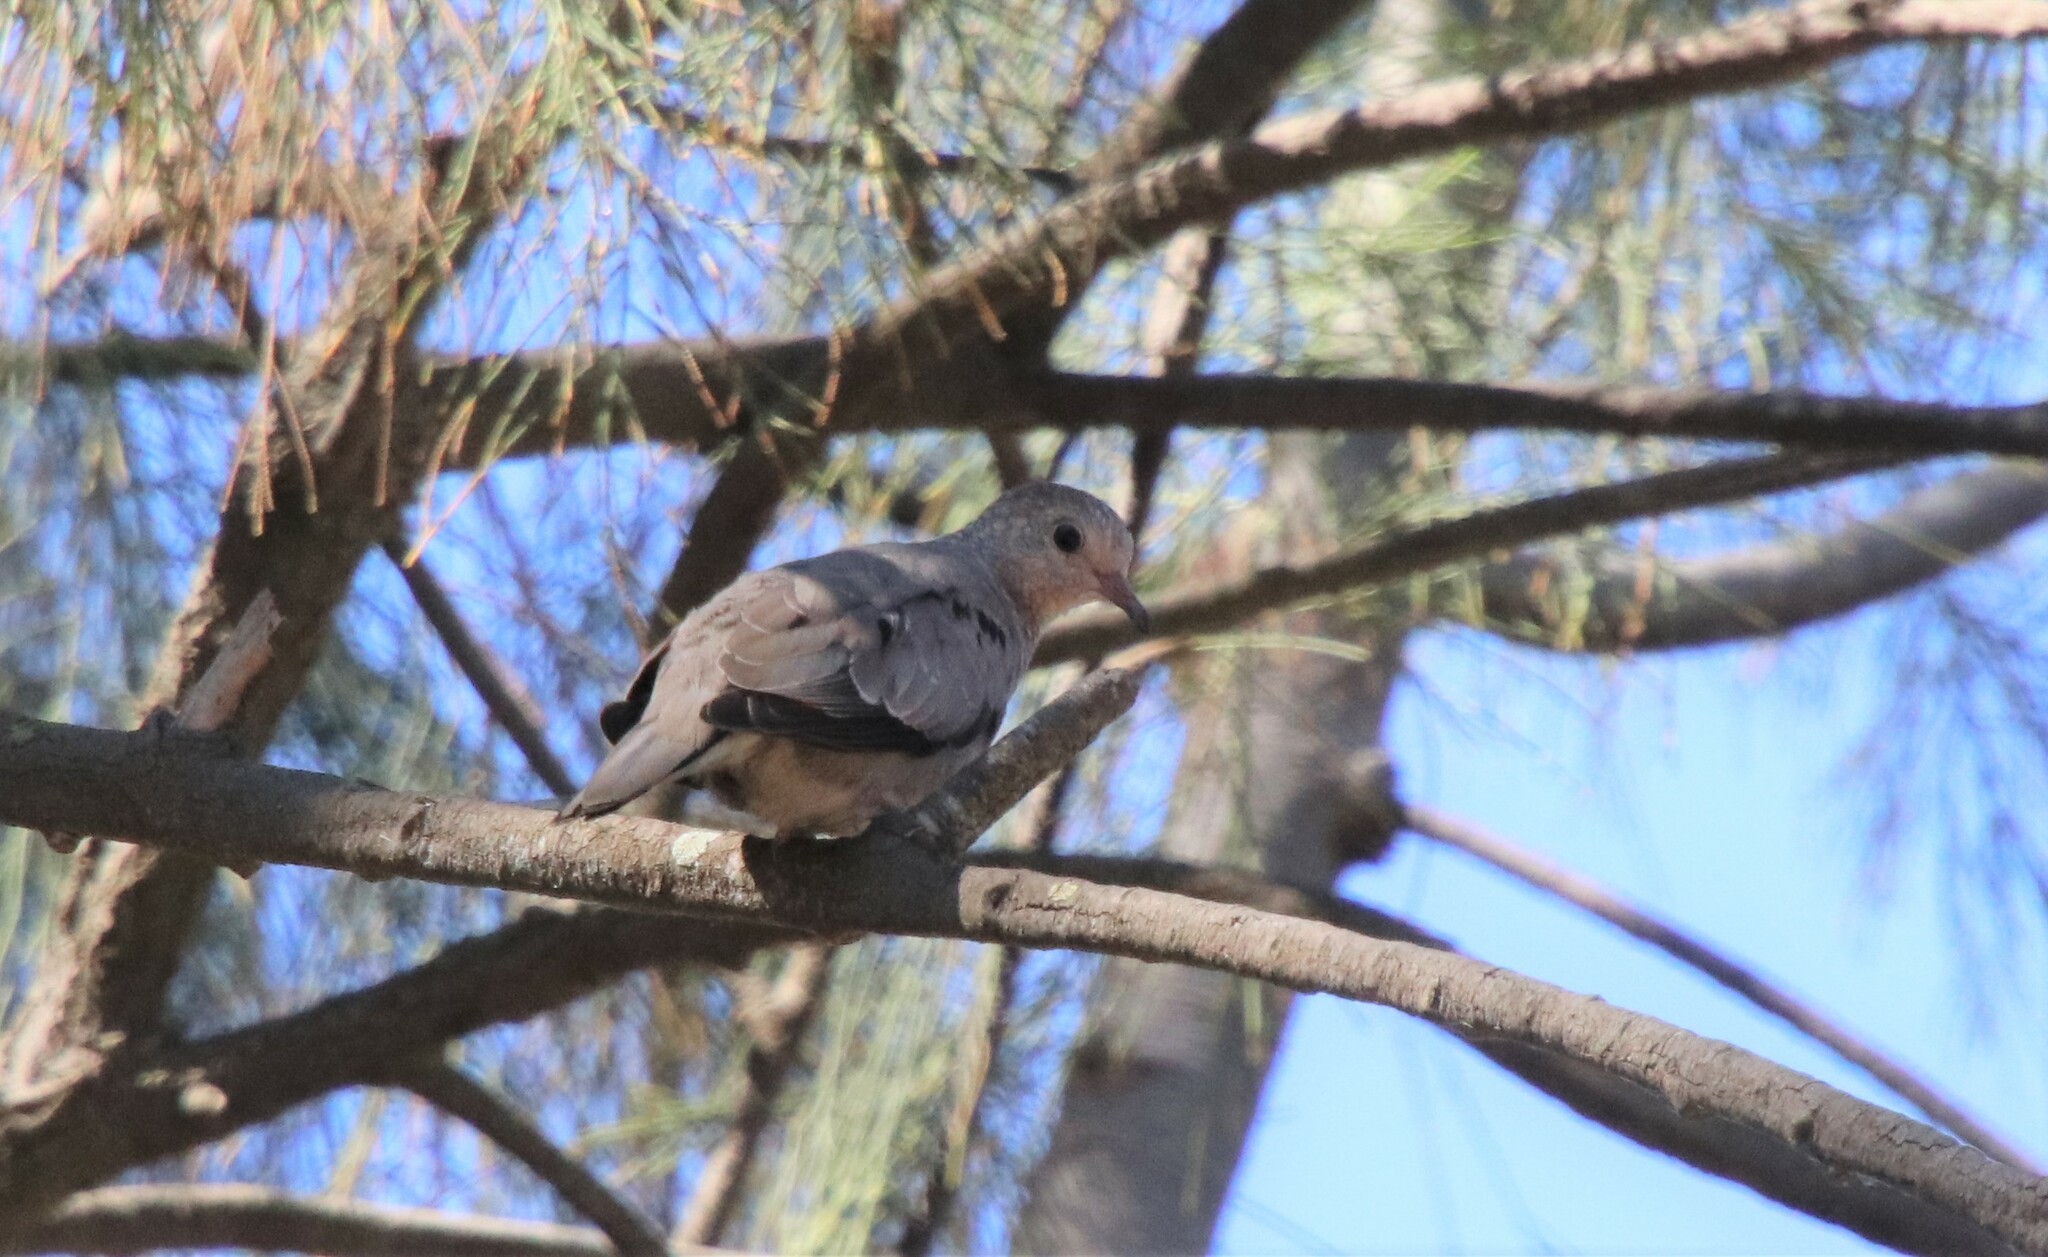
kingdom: Animalia
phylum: Chordata
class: Aves
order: Columbiformes
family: Columbidae
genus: Columbina
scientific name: Columbina passerina
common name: Common ground-dove
